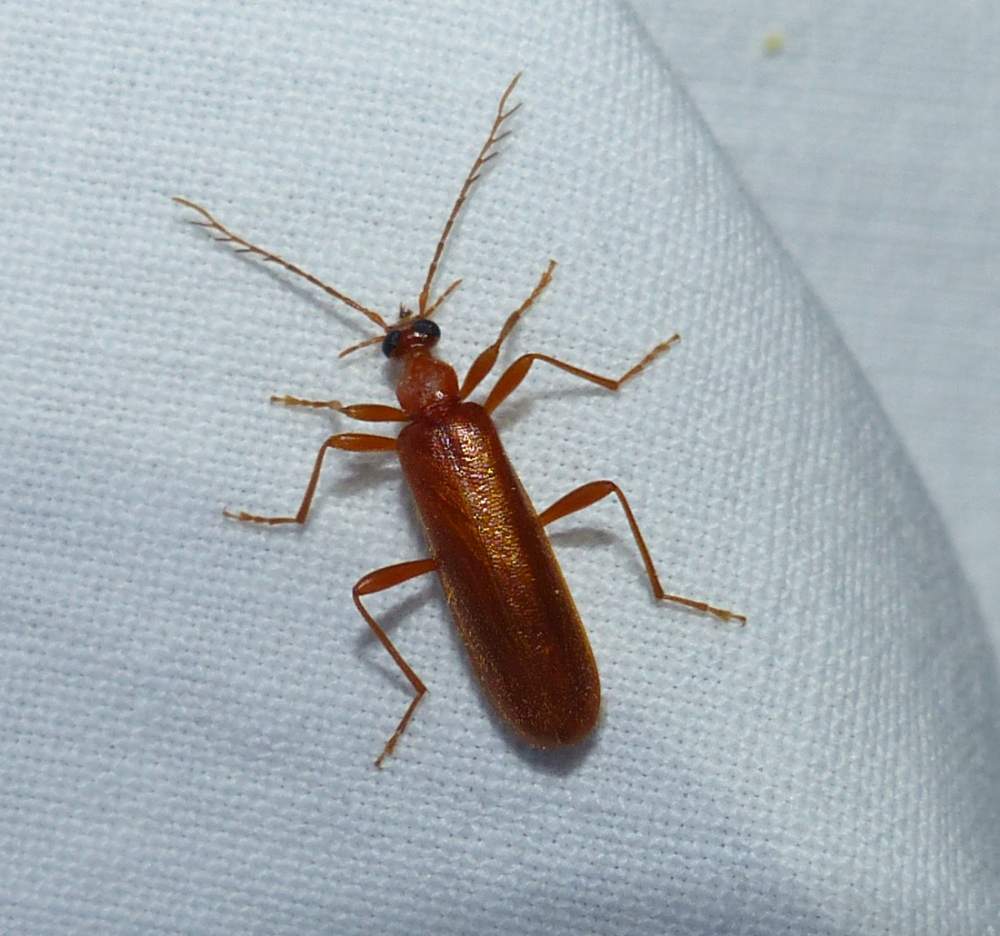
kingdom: Animalia
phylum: Arthropoda
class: Insecta
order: Coleoptera
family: Pyrochroidae
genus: Dendroides
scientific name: Dendroides concolor
